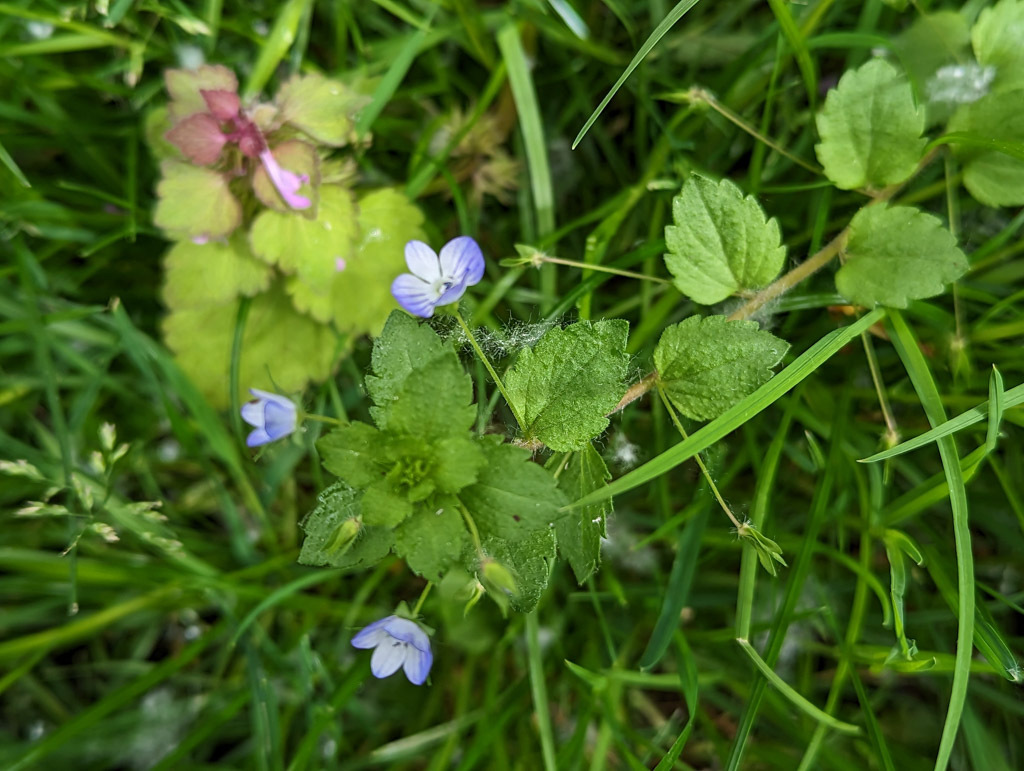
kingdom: Plantae
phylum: Tracheophyta
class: Magnoliopsida
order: Lamiales
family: Plantaginaceae
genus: Veronica
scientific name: Veronica persica
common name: Common field-speedwell
